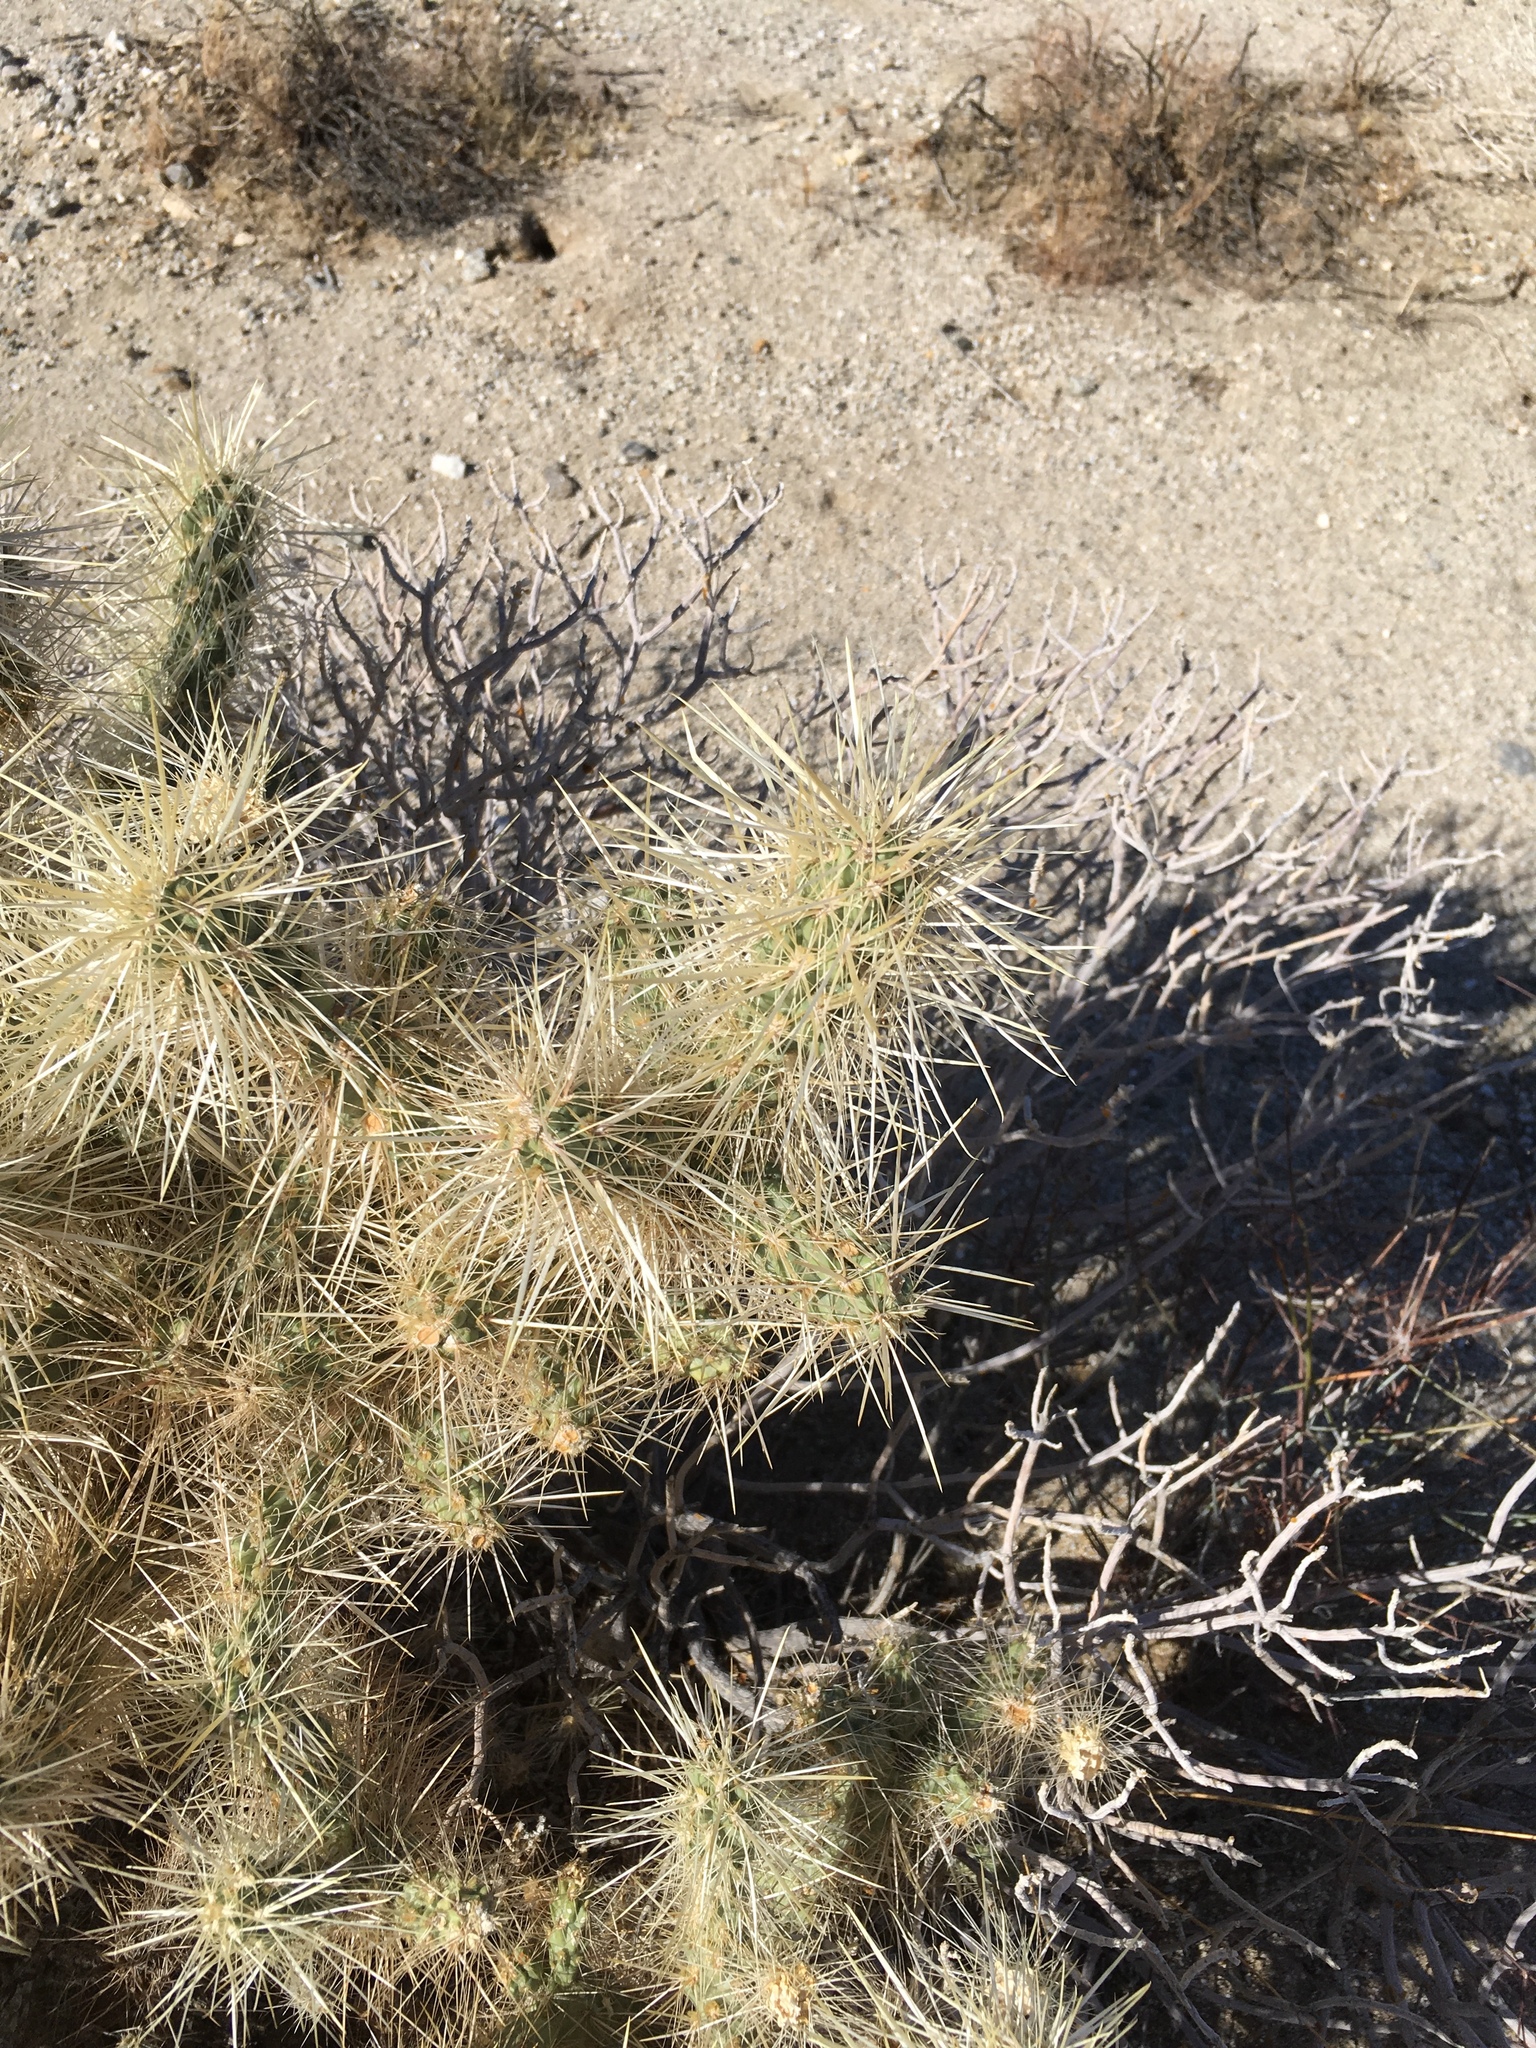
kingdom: Plantae
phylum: Tracheophyta
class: Magnoliopsida
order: Caryophyllales
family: Cactaceae
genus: Cylindropuntia
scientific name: Cylindropuntia echinocarpa
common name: Ground cholla
